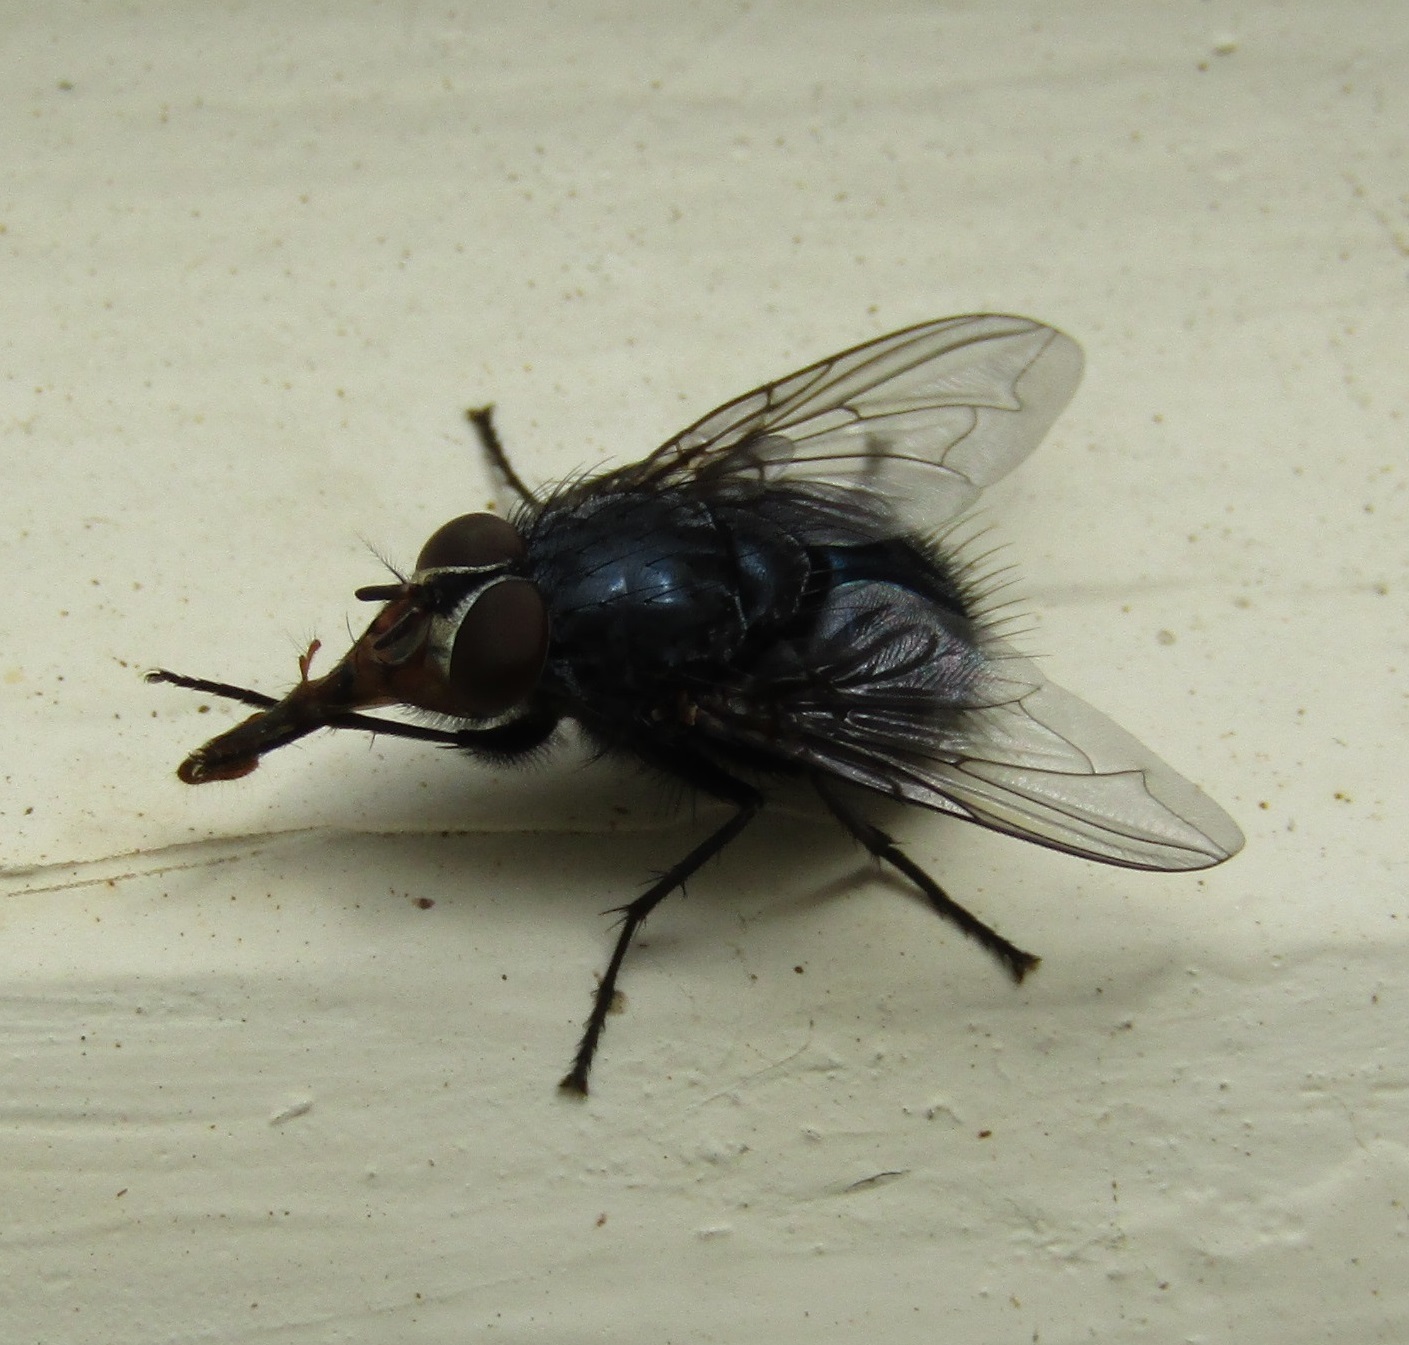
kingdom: Animalia
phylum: Arthropoda
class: Insecta
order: Diptera
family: Calliphoridae
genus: Calliphora
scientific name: Calliphora vicina
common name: Common blow flie
